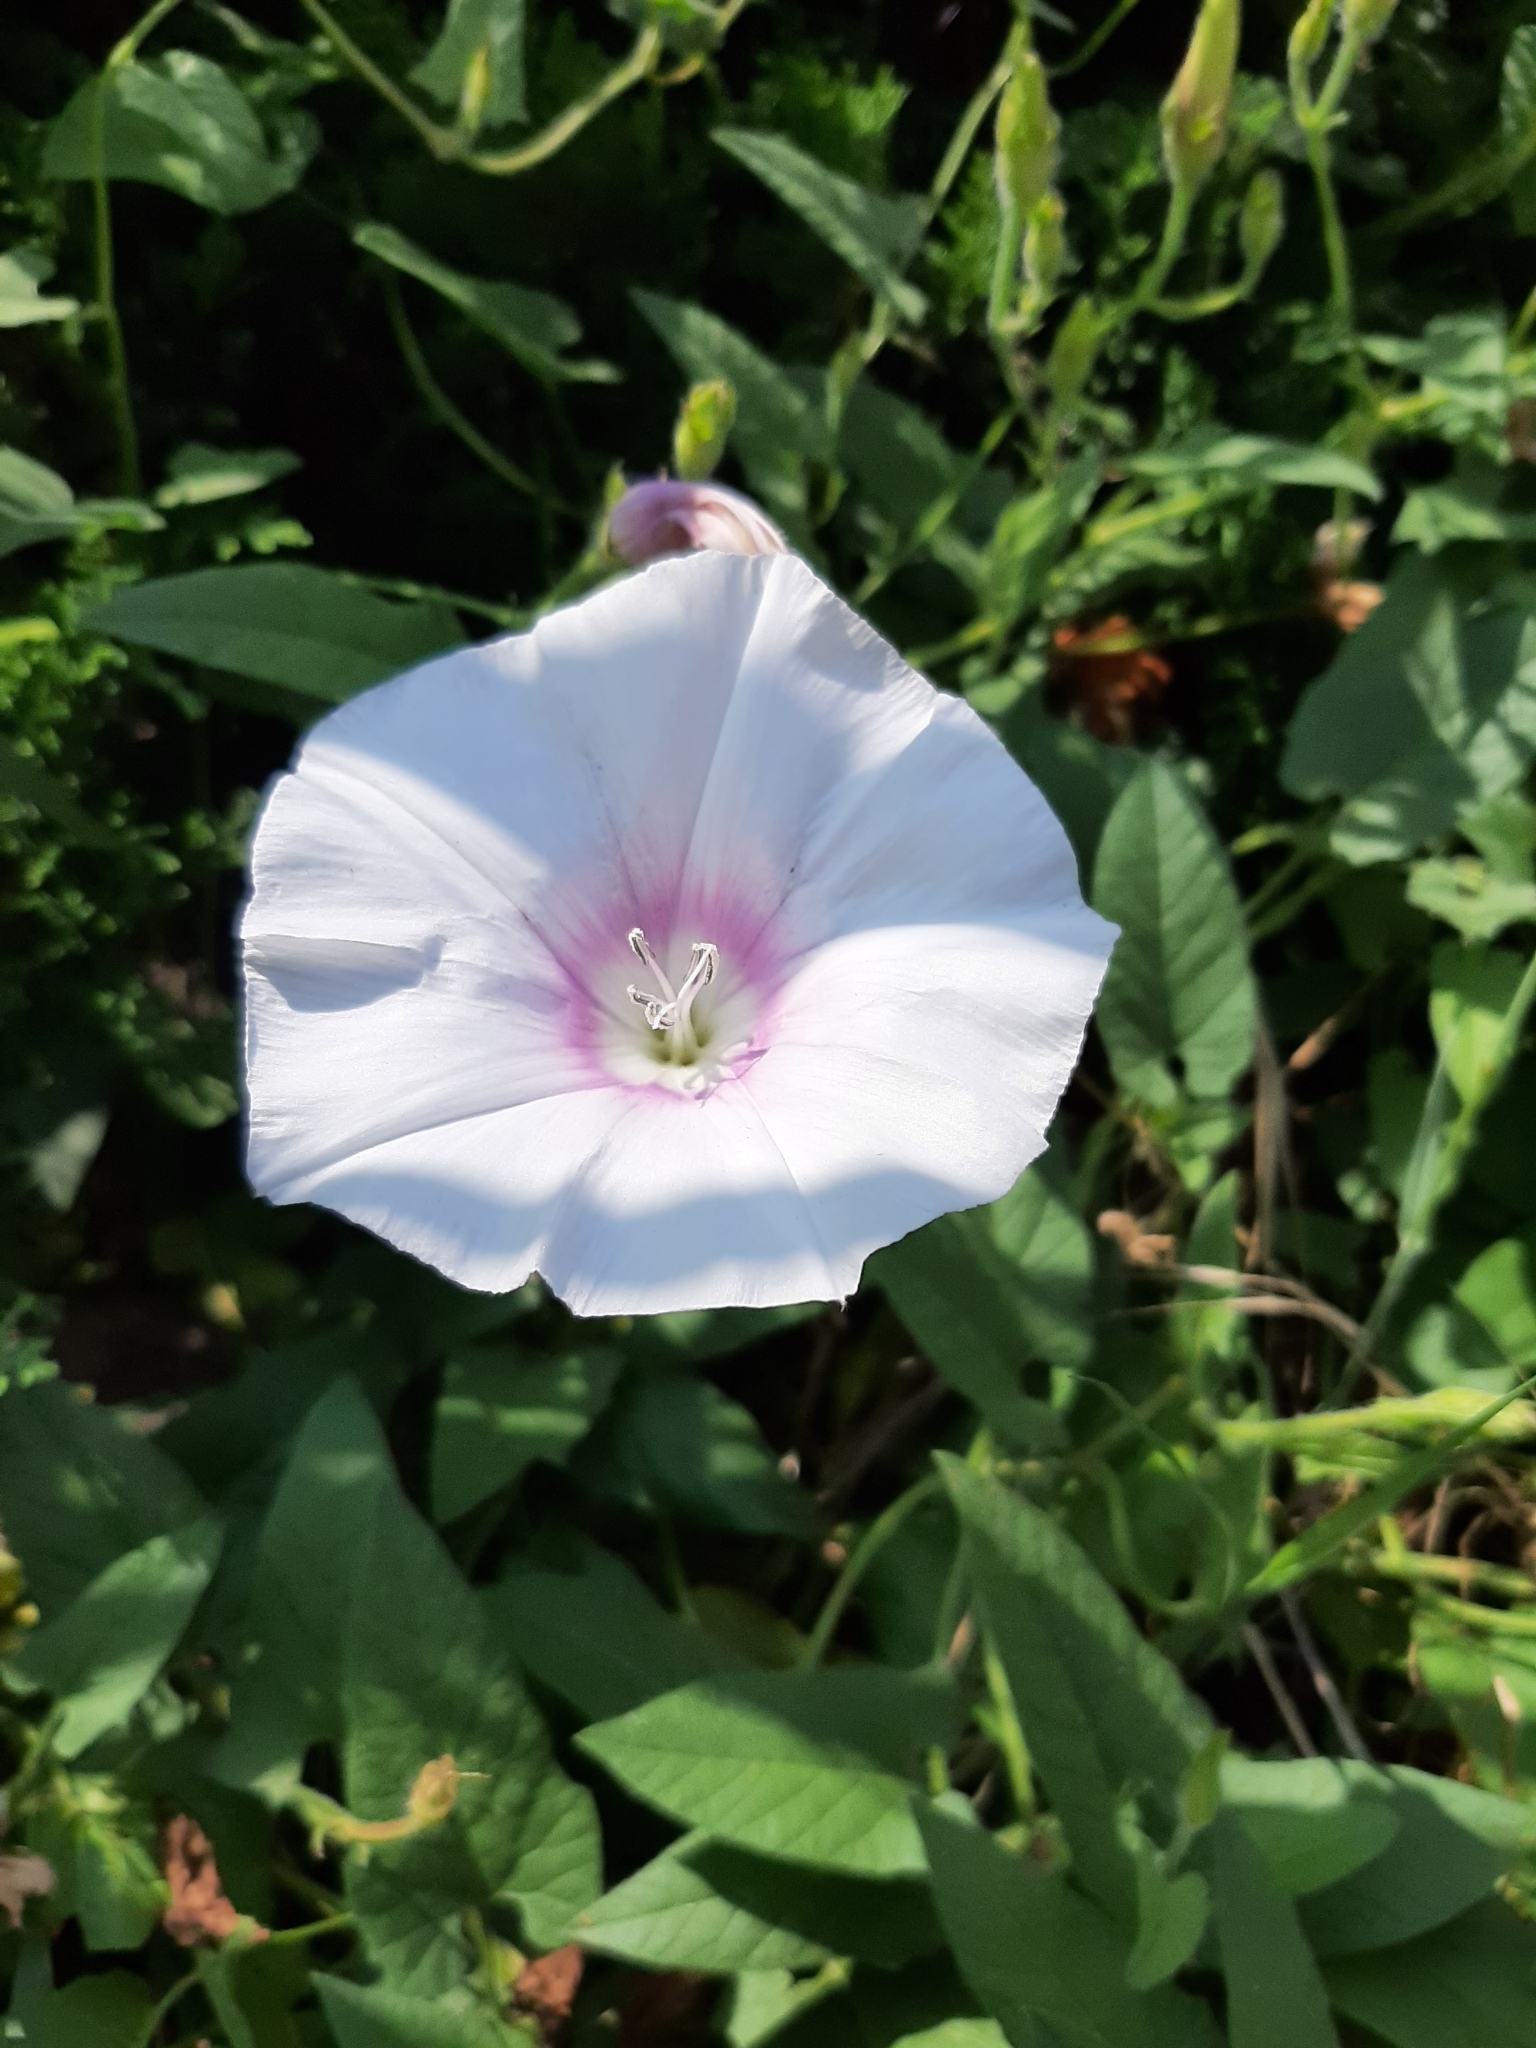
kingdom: Plantae
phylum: Tracheophyta
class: Magnoliopsida
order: Solanales
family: Convolvulaceae
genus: Convolvulus
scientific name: Convolvulus betonicifolius
